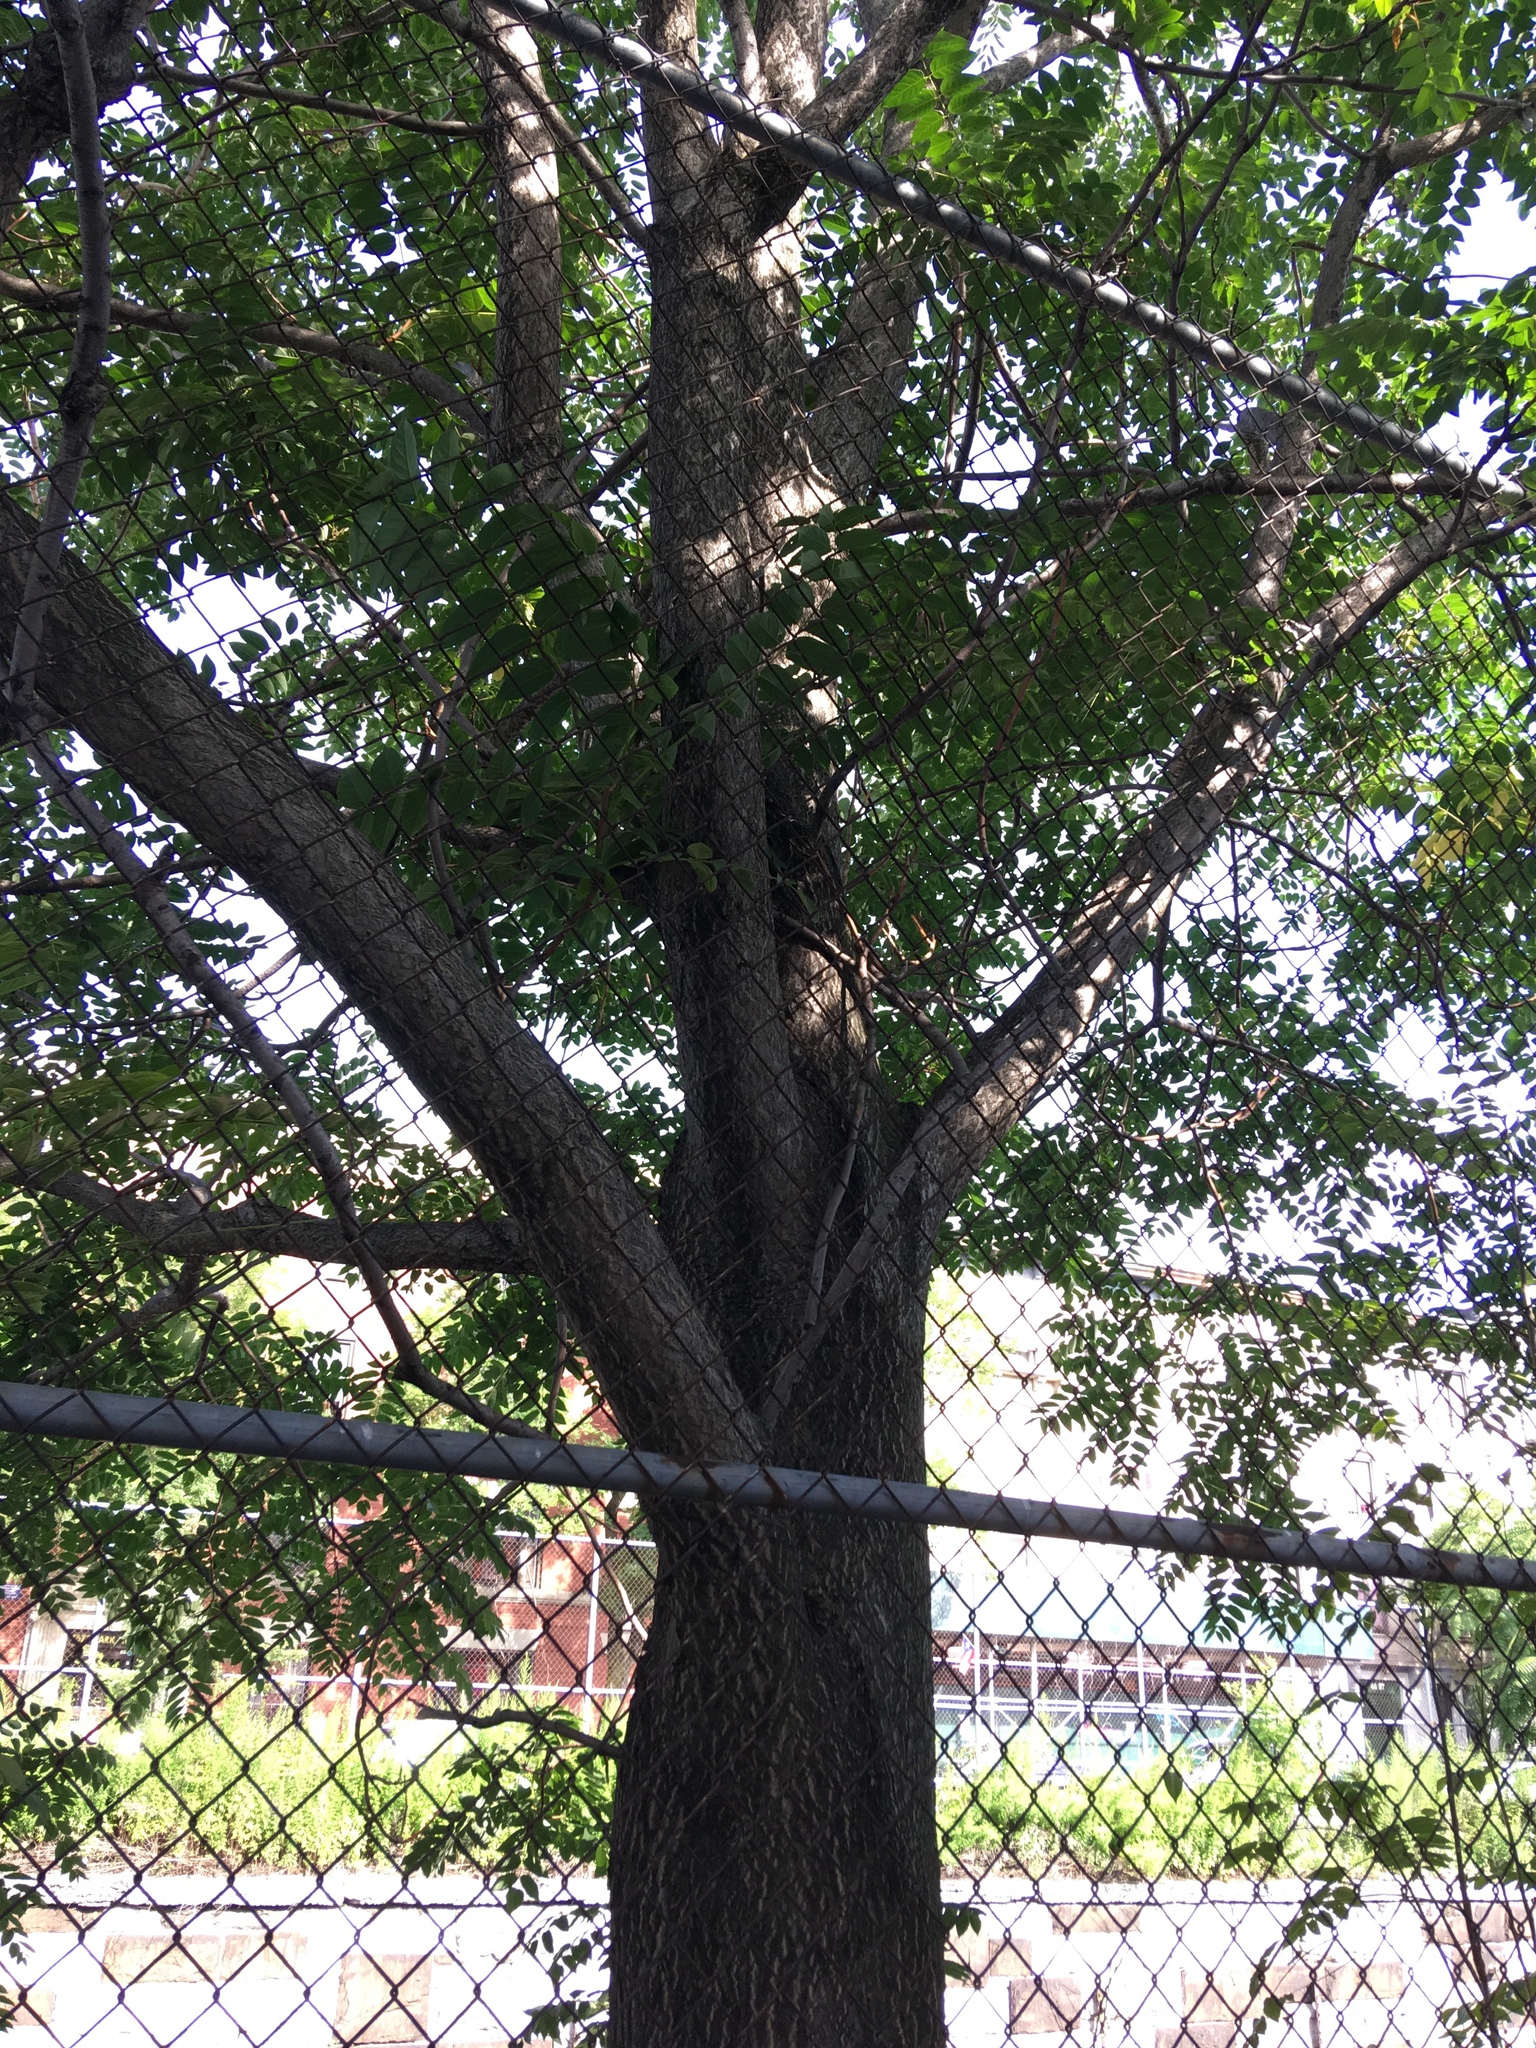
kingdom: Plantae
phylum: Tracheophyta
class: Magnoliopsida
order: Sapindales
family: Simaroubaceae
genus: Ailanthus
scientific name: Ailanthus altissima
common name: Tree-of-heaven
